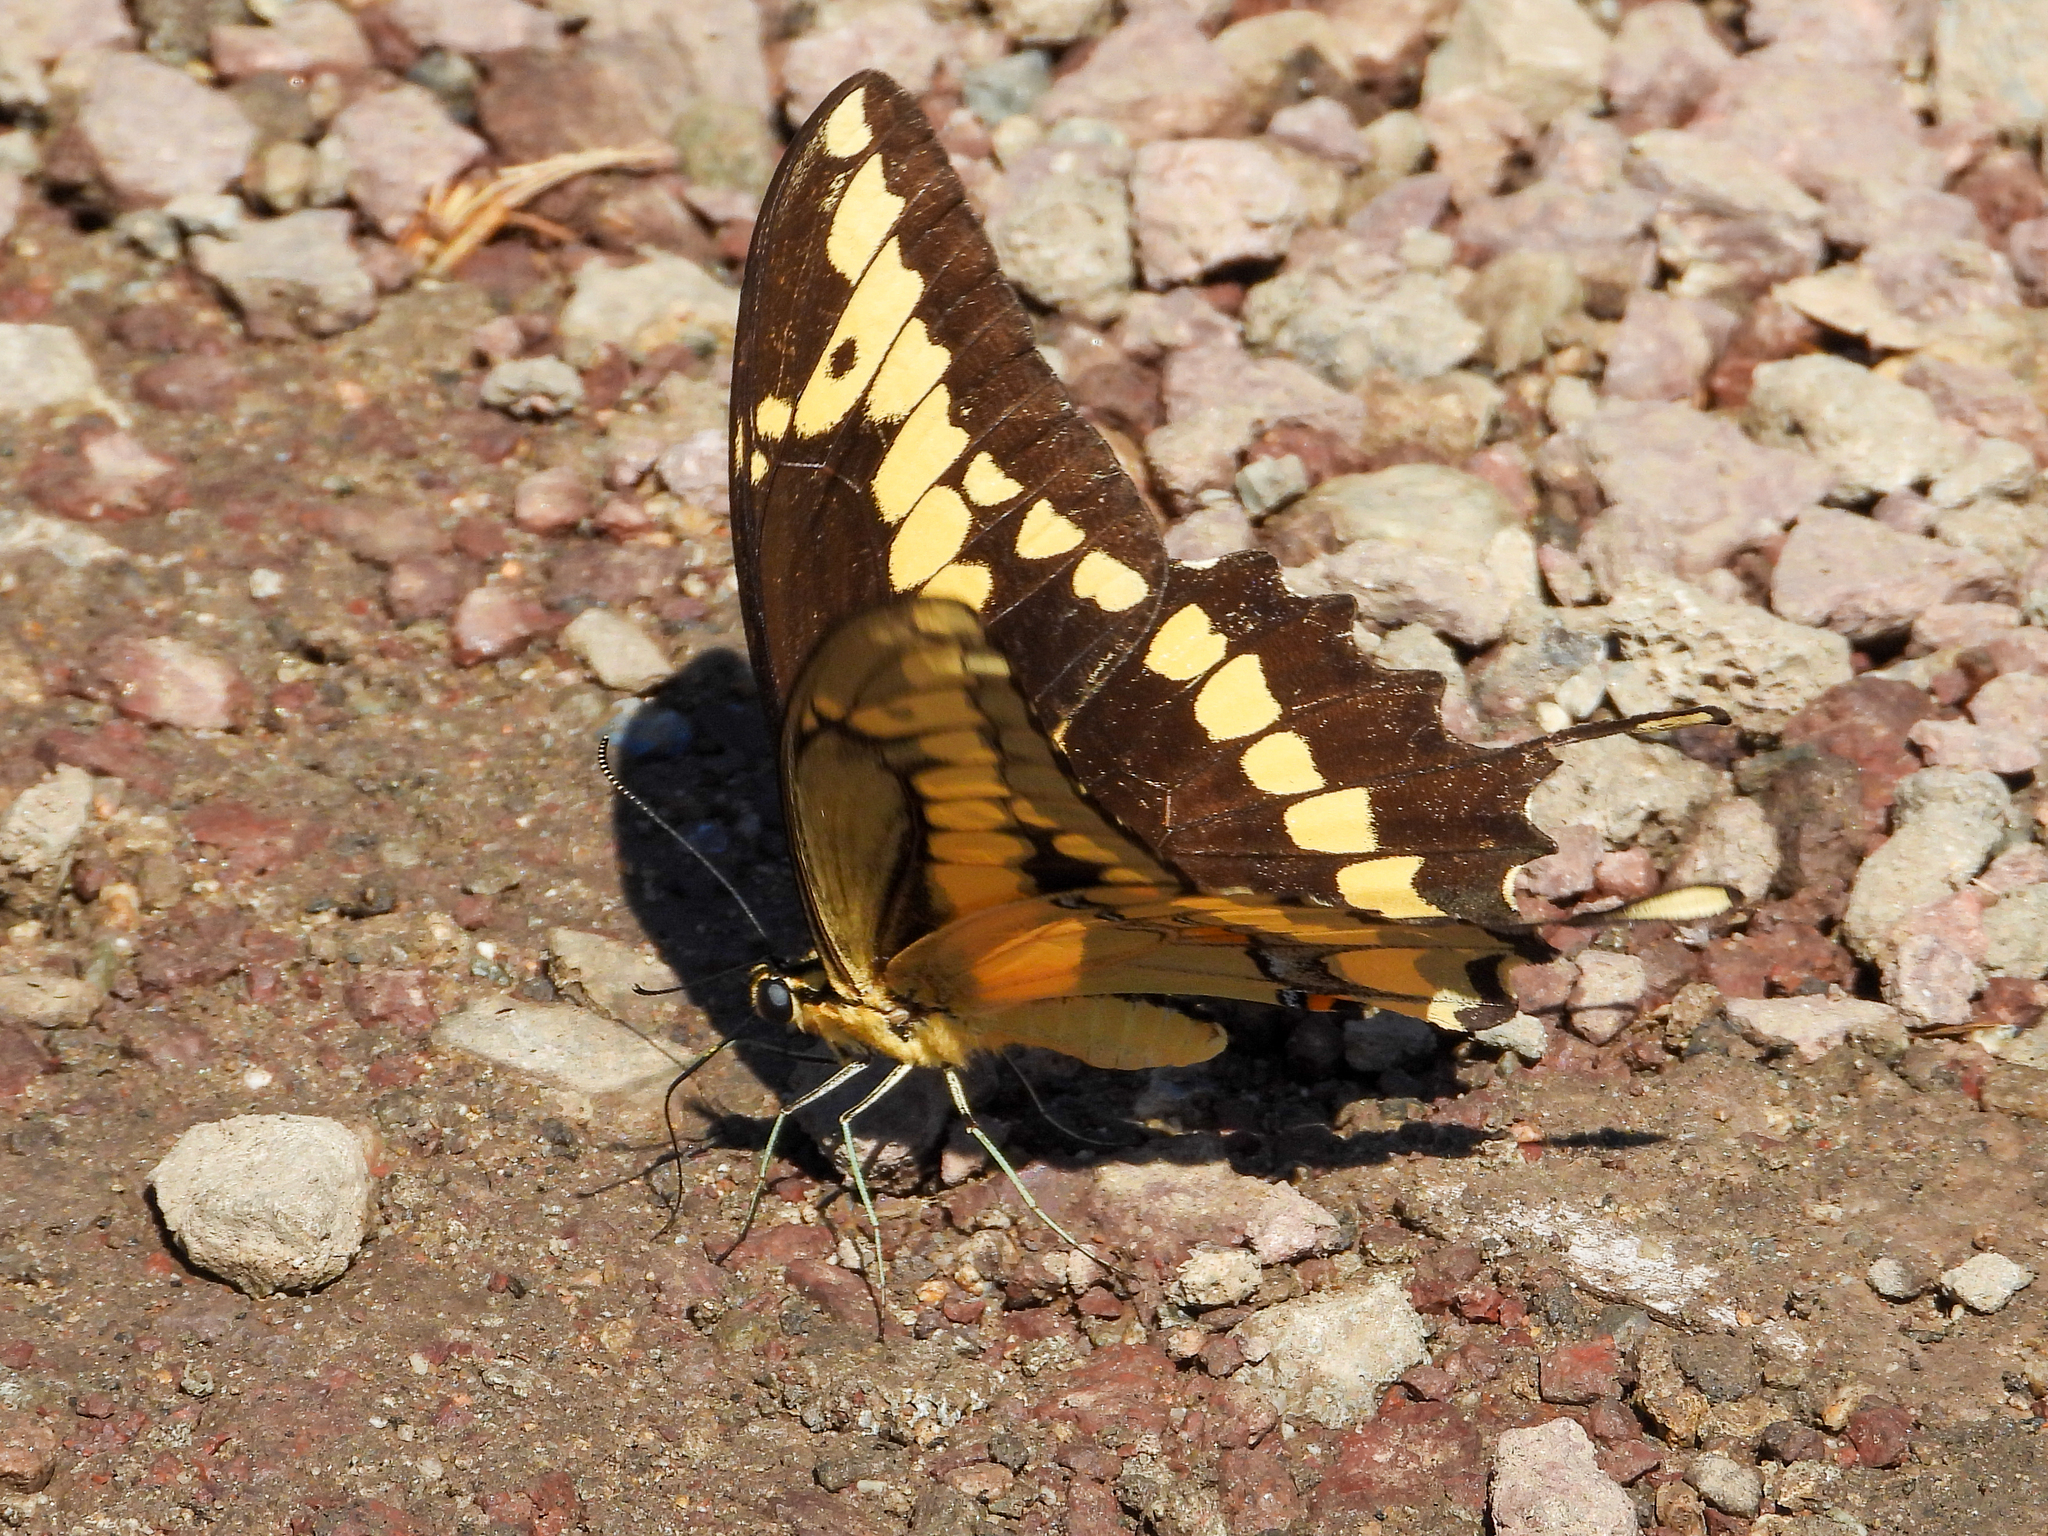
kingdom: Animalia
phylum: Arthropoda
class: Insecta
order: Lepidoptera
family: Papilionidae
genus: Papilio
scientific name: Papilio rumiko
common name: Western giant swallowtail
